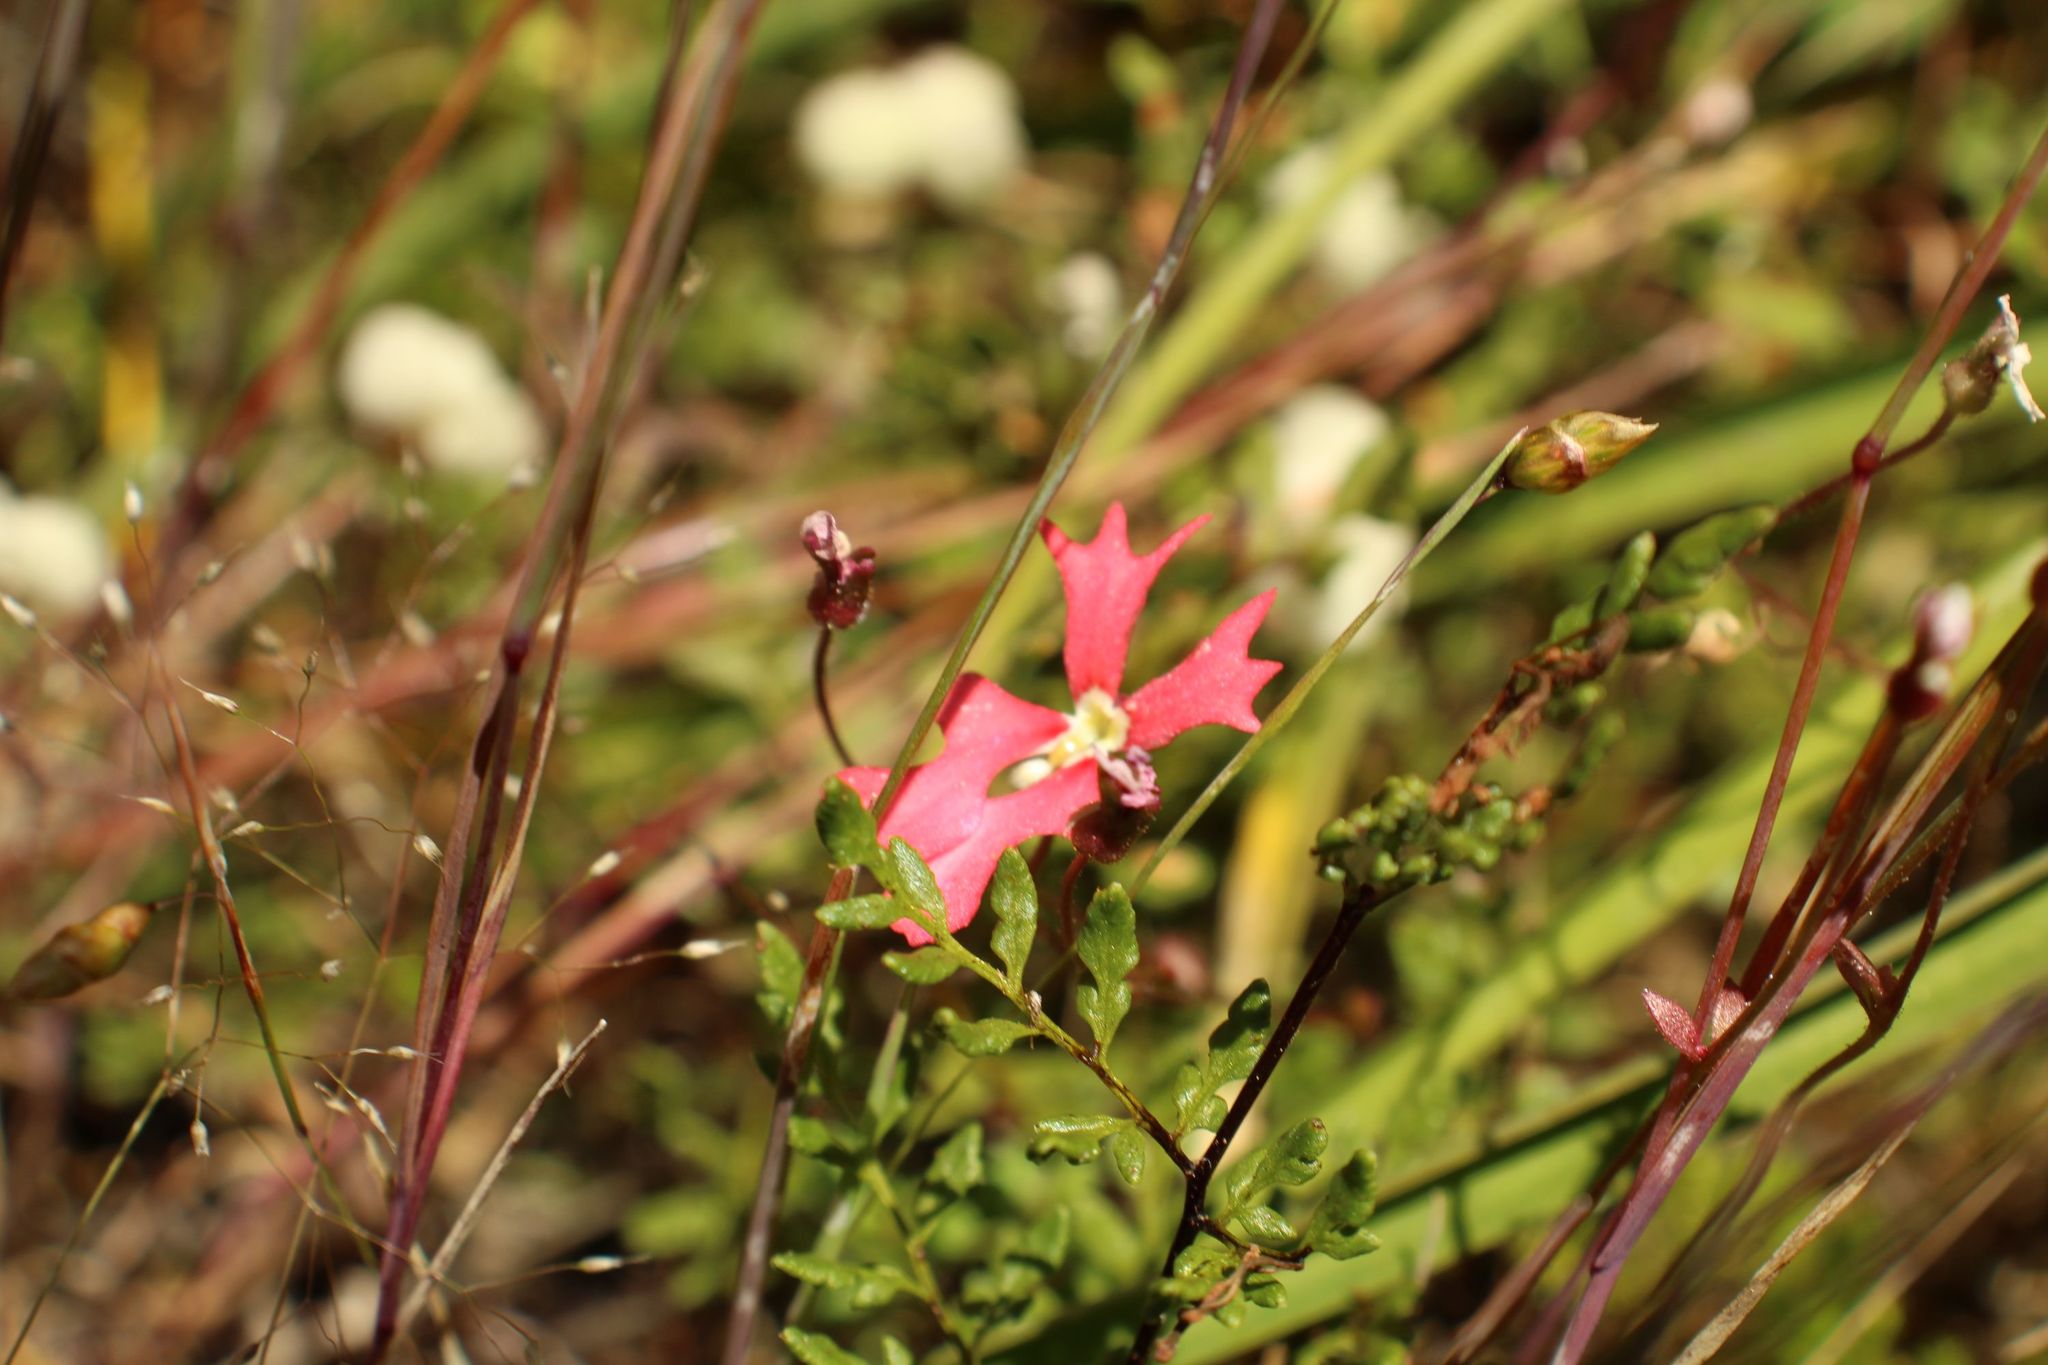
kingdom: Plantae
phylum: Tracheophyta
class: Magnoliopsida
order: Asterales
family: Stylidiaceae
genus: Stylidium
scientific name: Stylidium ecorne
